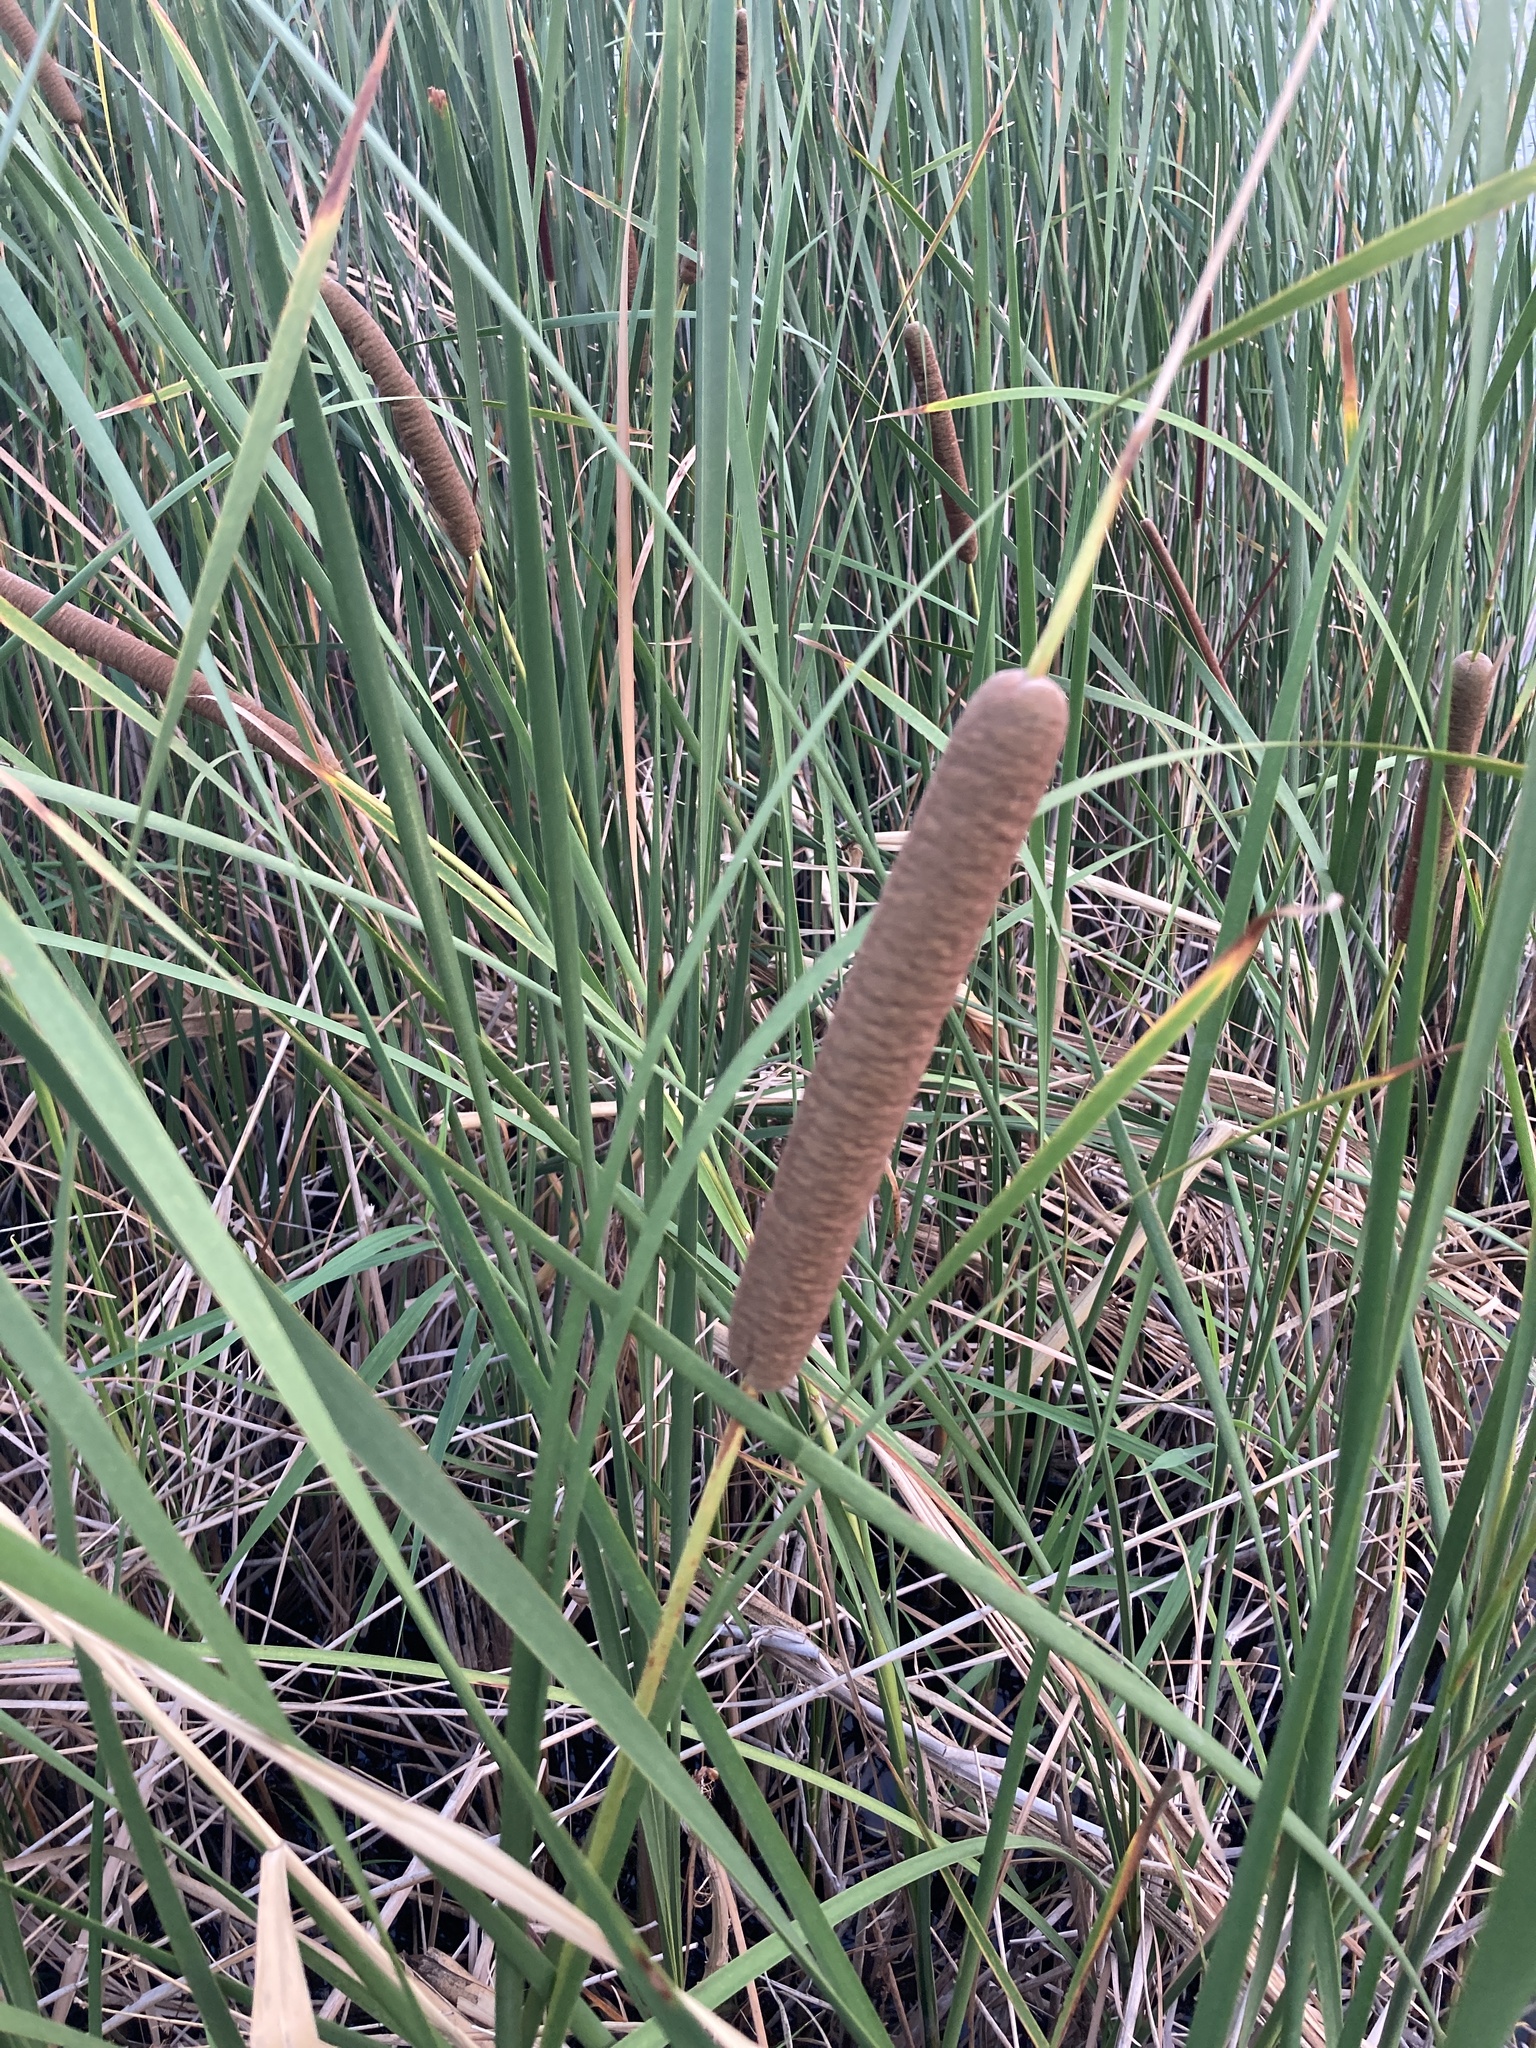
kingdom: Plantae
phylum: Tracheophyta
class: Liliopsida
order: Poales
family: Typhaceae
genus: Typha
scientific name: Typha angustifolia
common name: Lesser bulrush
